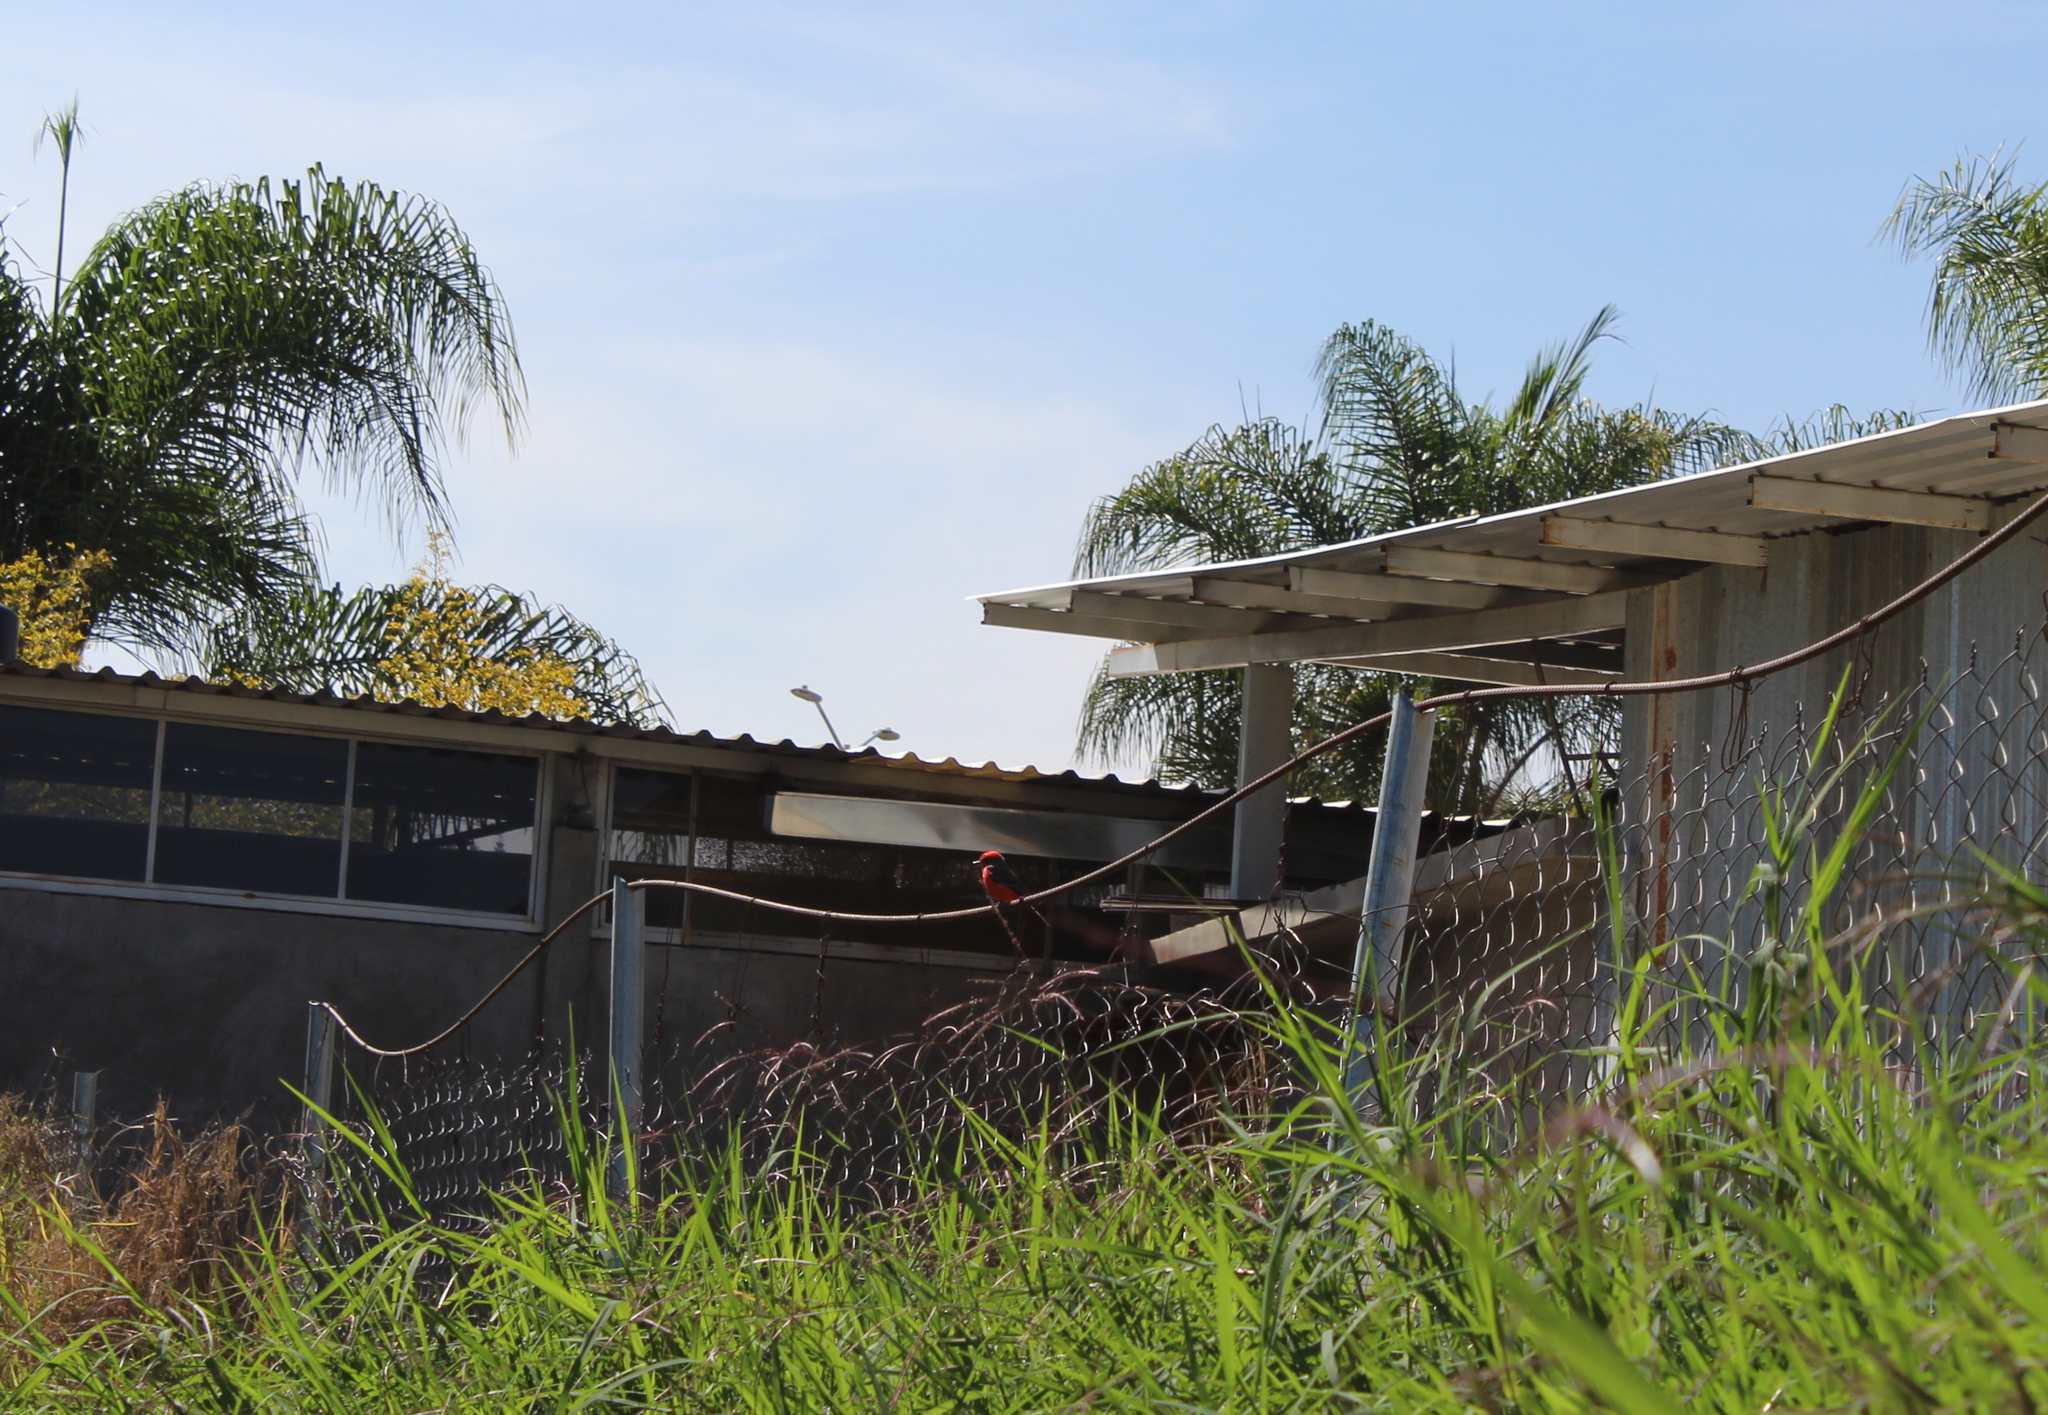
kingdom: Animalia
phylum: Chordata
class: Aves
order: Passeriformes
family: Tyrannidae
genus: Pyrocephalus
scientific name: Pyrocephalus rubinus
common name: Vermilion flycatcher
